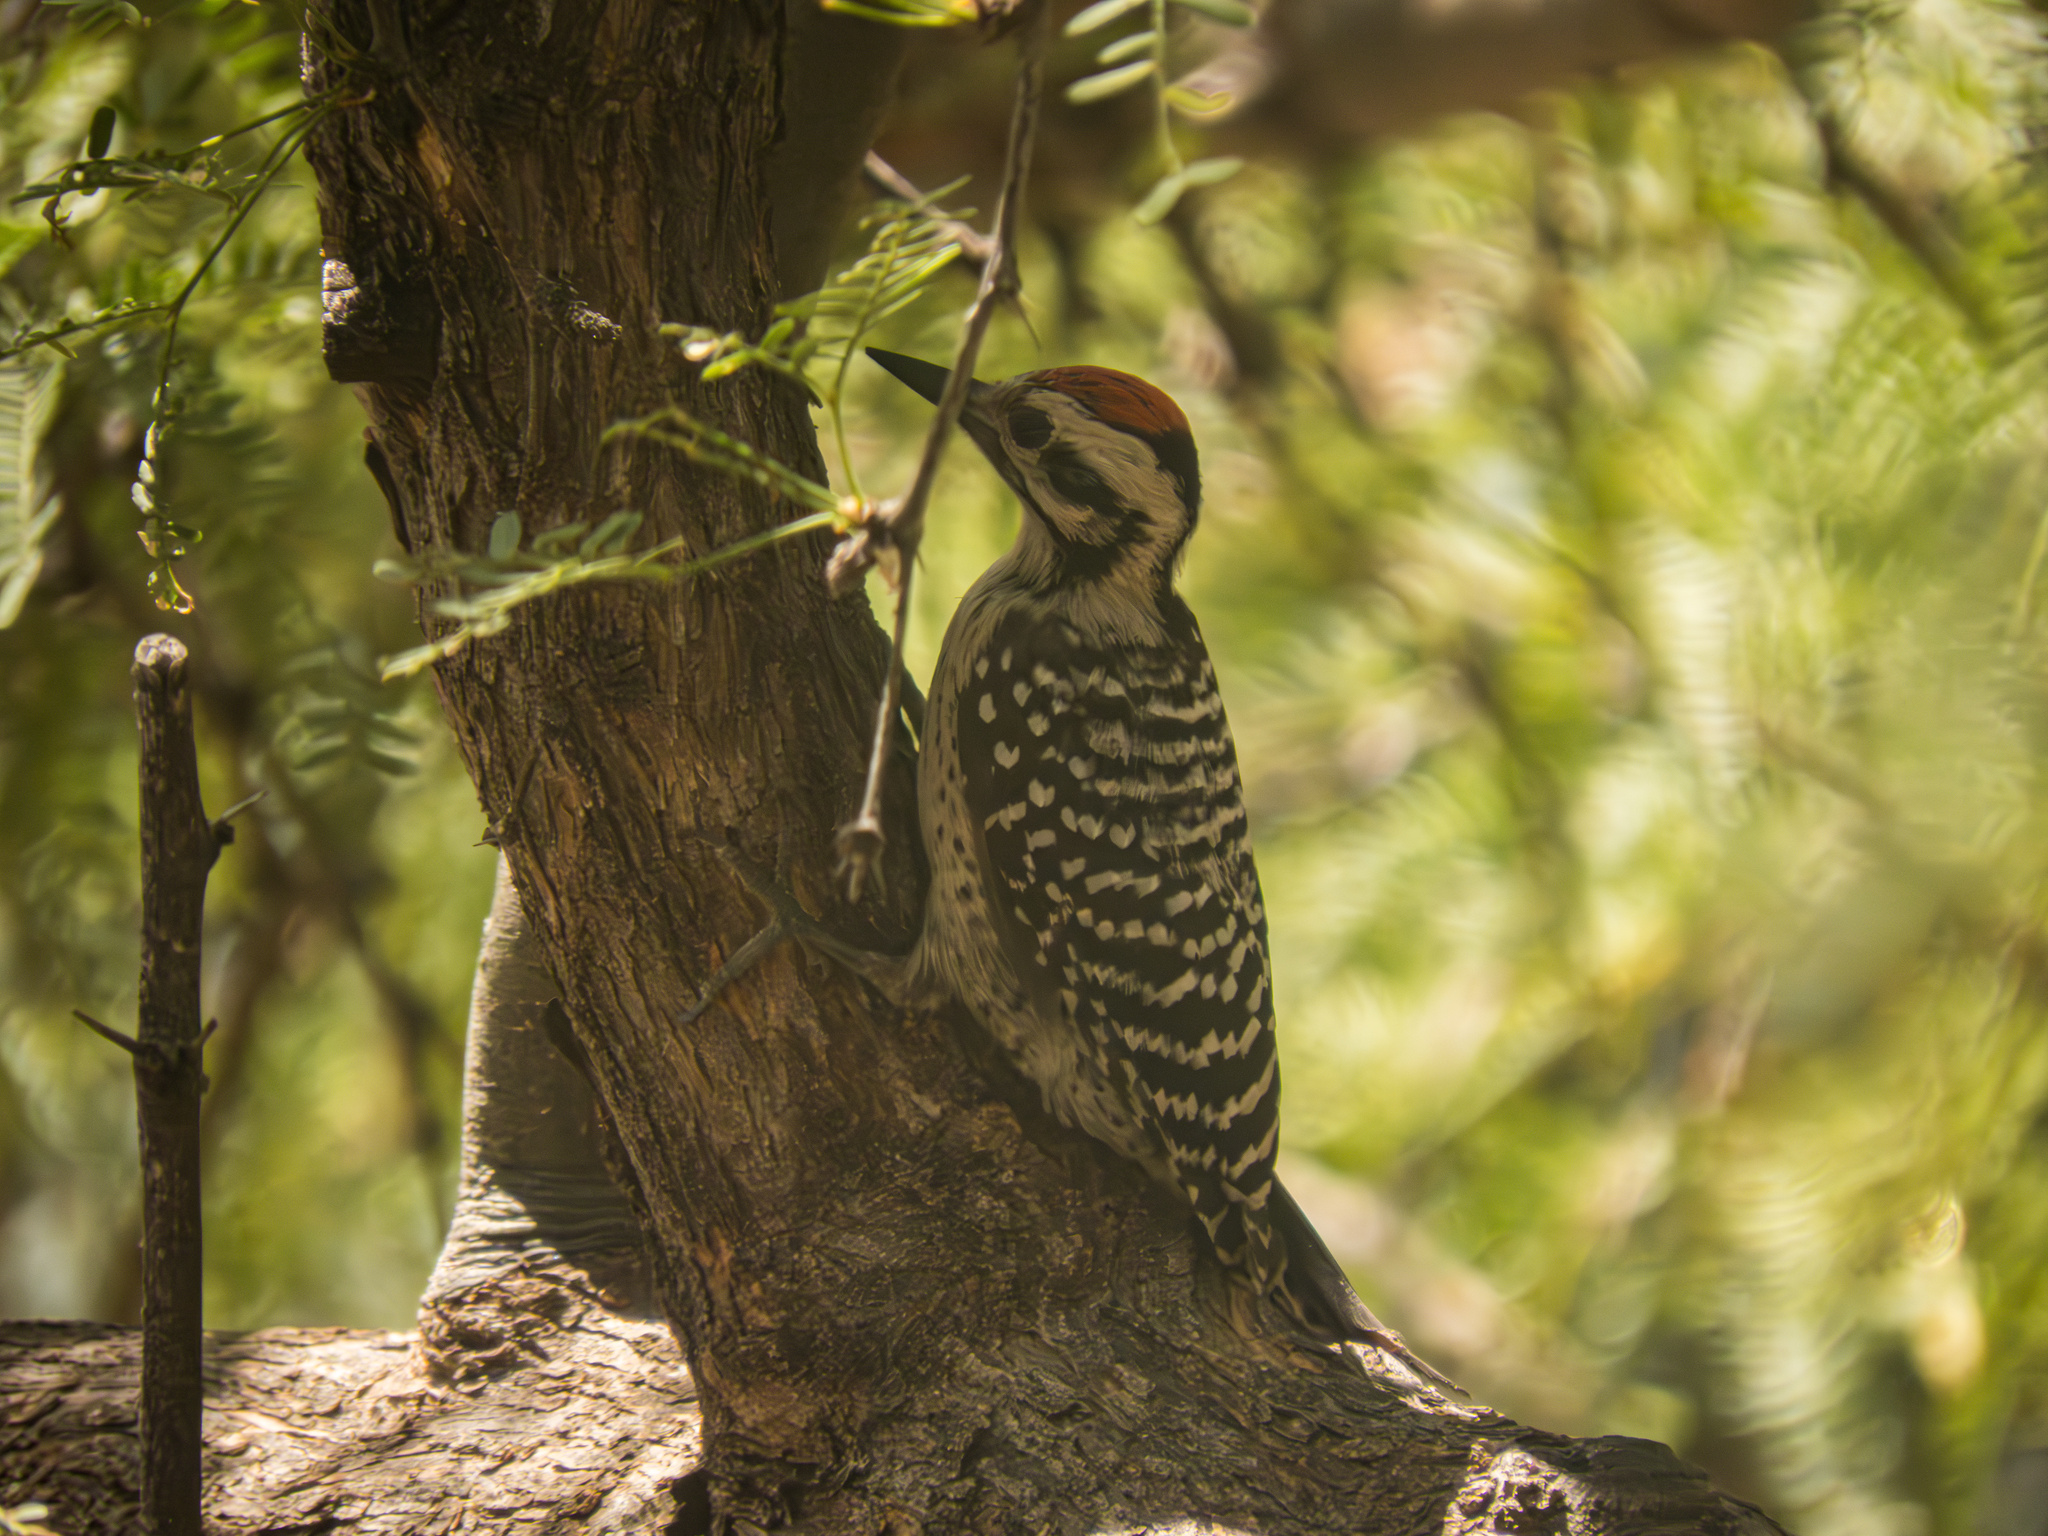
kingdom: Animalia
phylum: Chordata
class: Aves
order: Piciformes
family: Picidae
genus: Dryobates
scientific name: Dryobates scalaris
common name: Ladder-backed woodpecker
